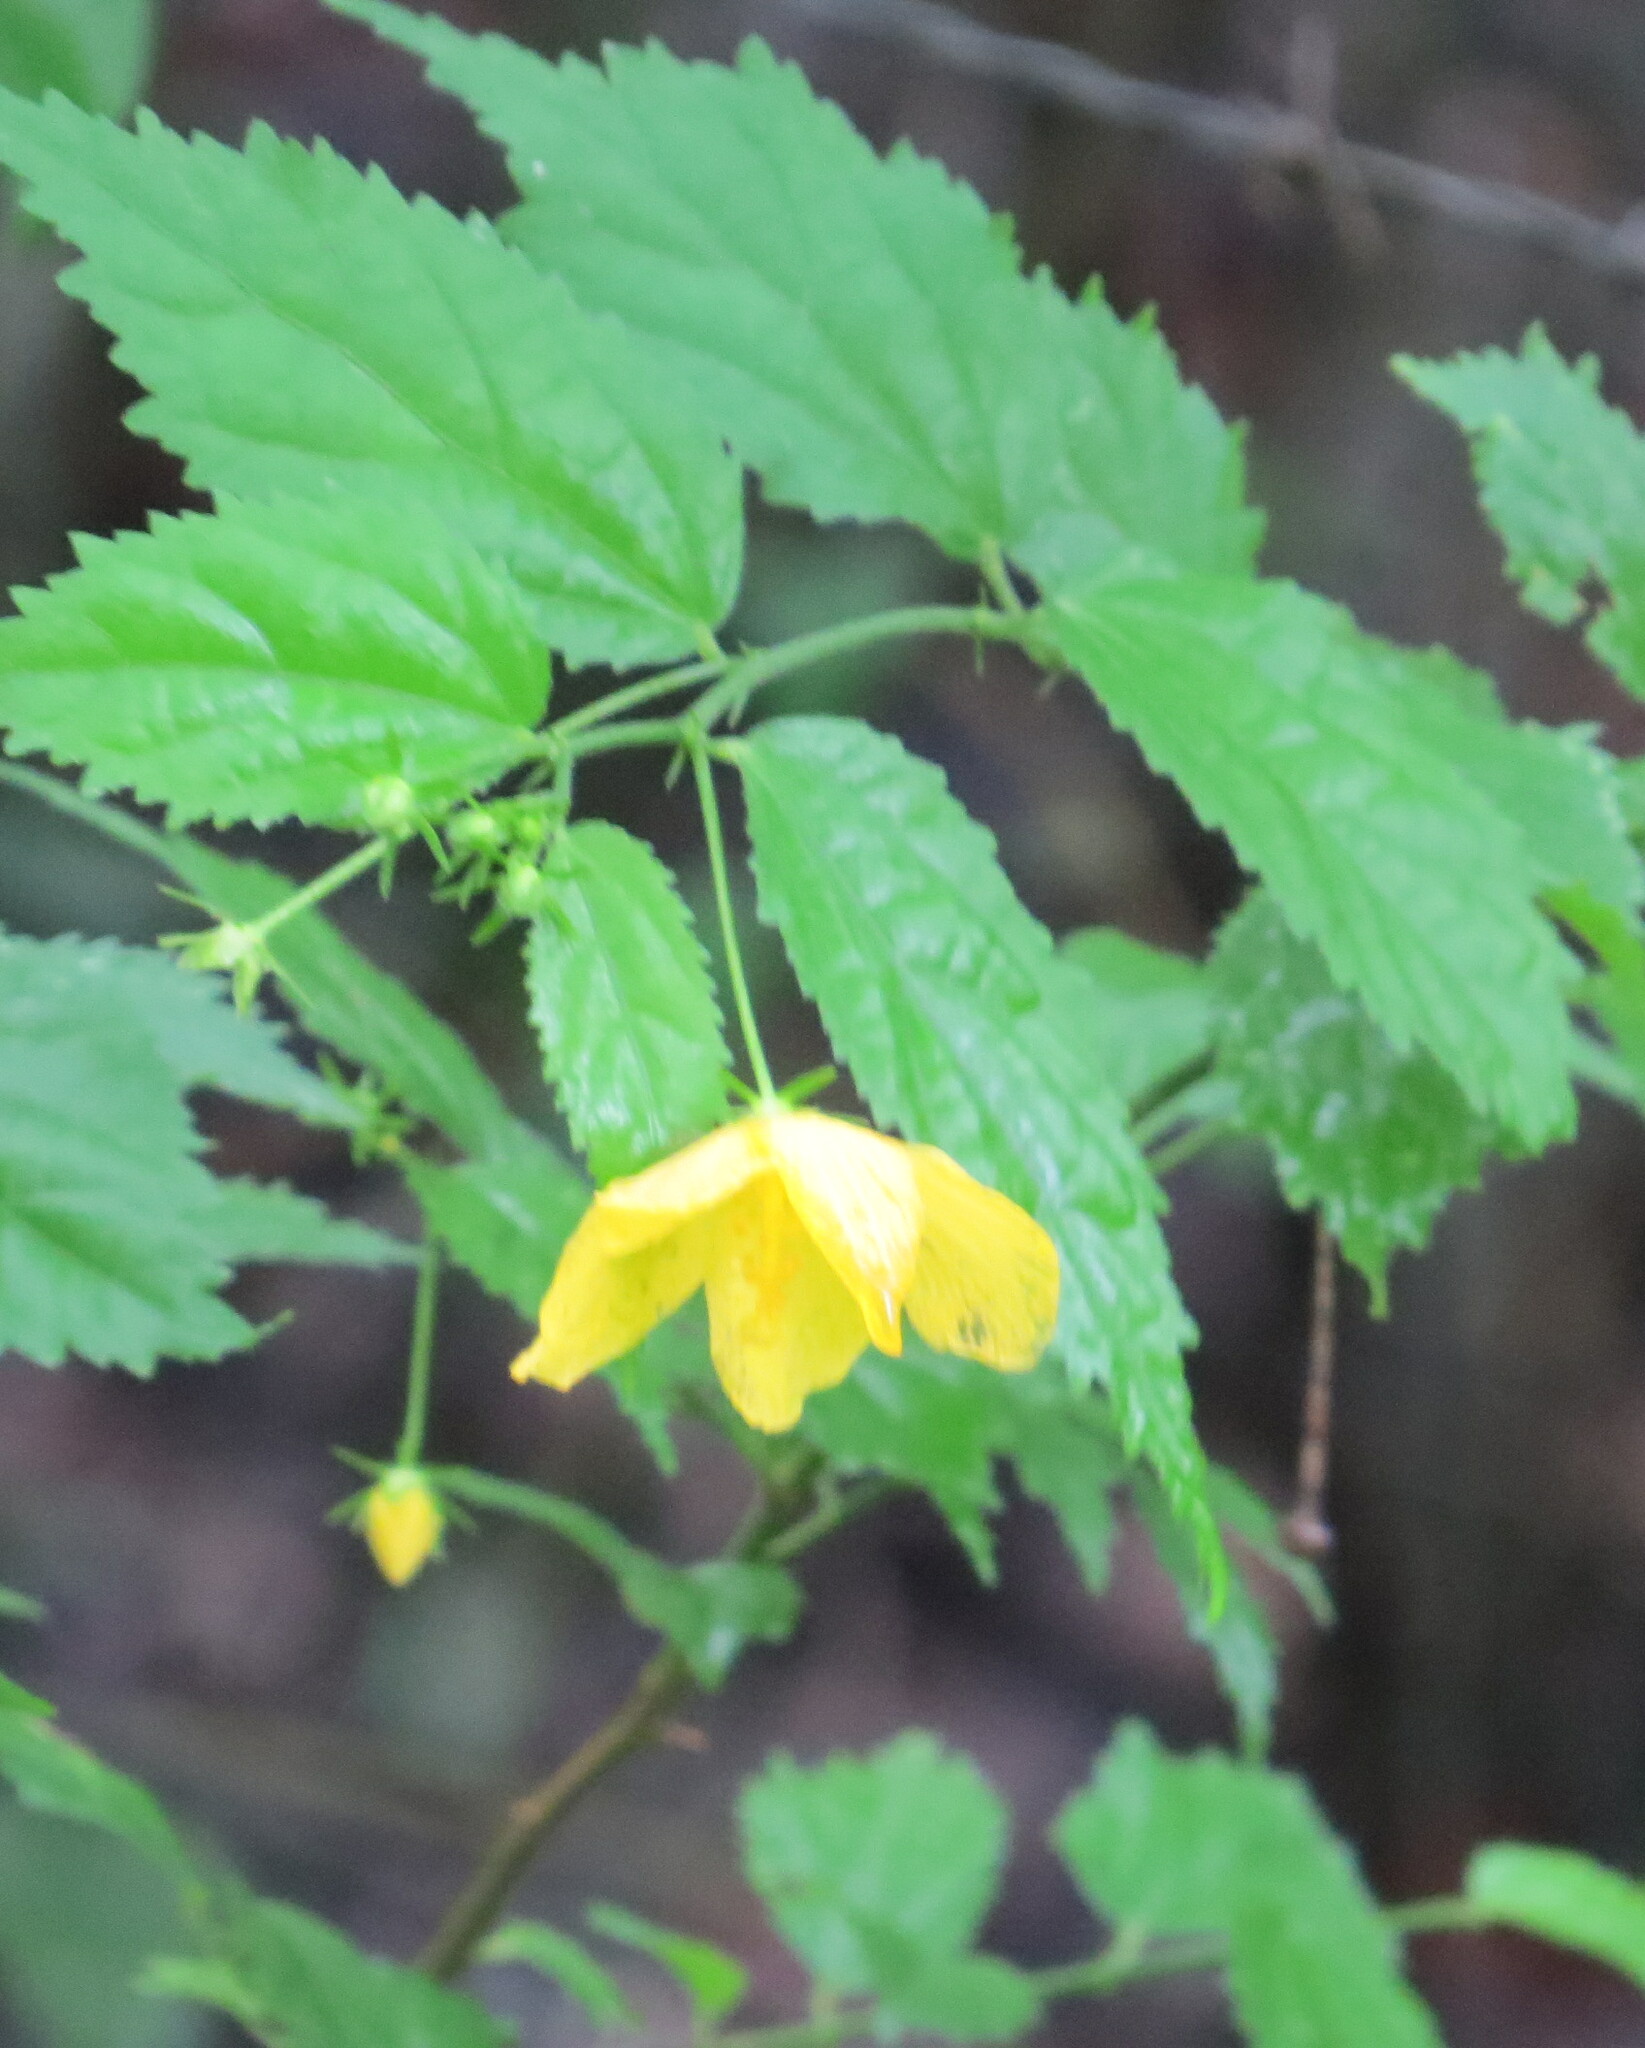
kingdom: Plantae
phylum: Tracheophyta
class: Magnoliopsida
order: Malvales
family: Malvaceae
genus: Pavonia
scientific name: Pavonia sepium
